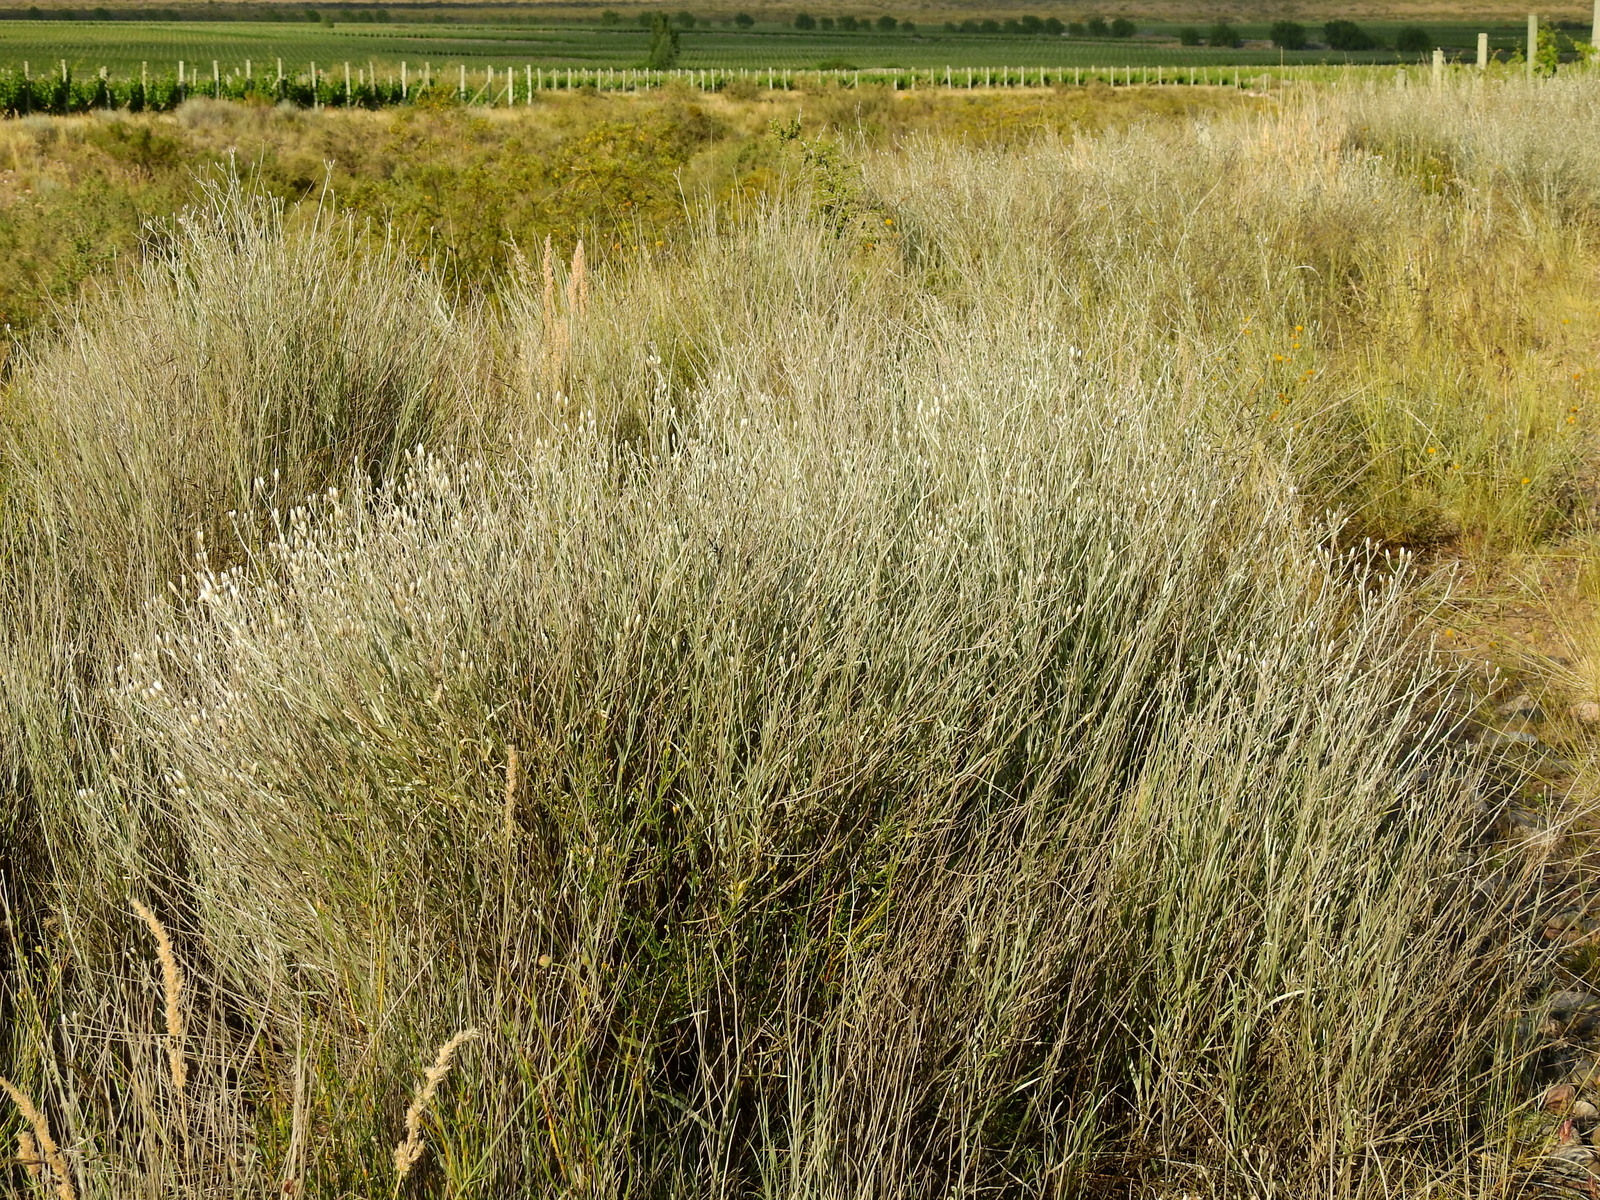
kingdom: Plantae
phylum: Tracheophyta
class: Magnoliopsida
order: Asterales
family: Asteraceae
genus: Hyalis
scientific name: Hyalis argentea
